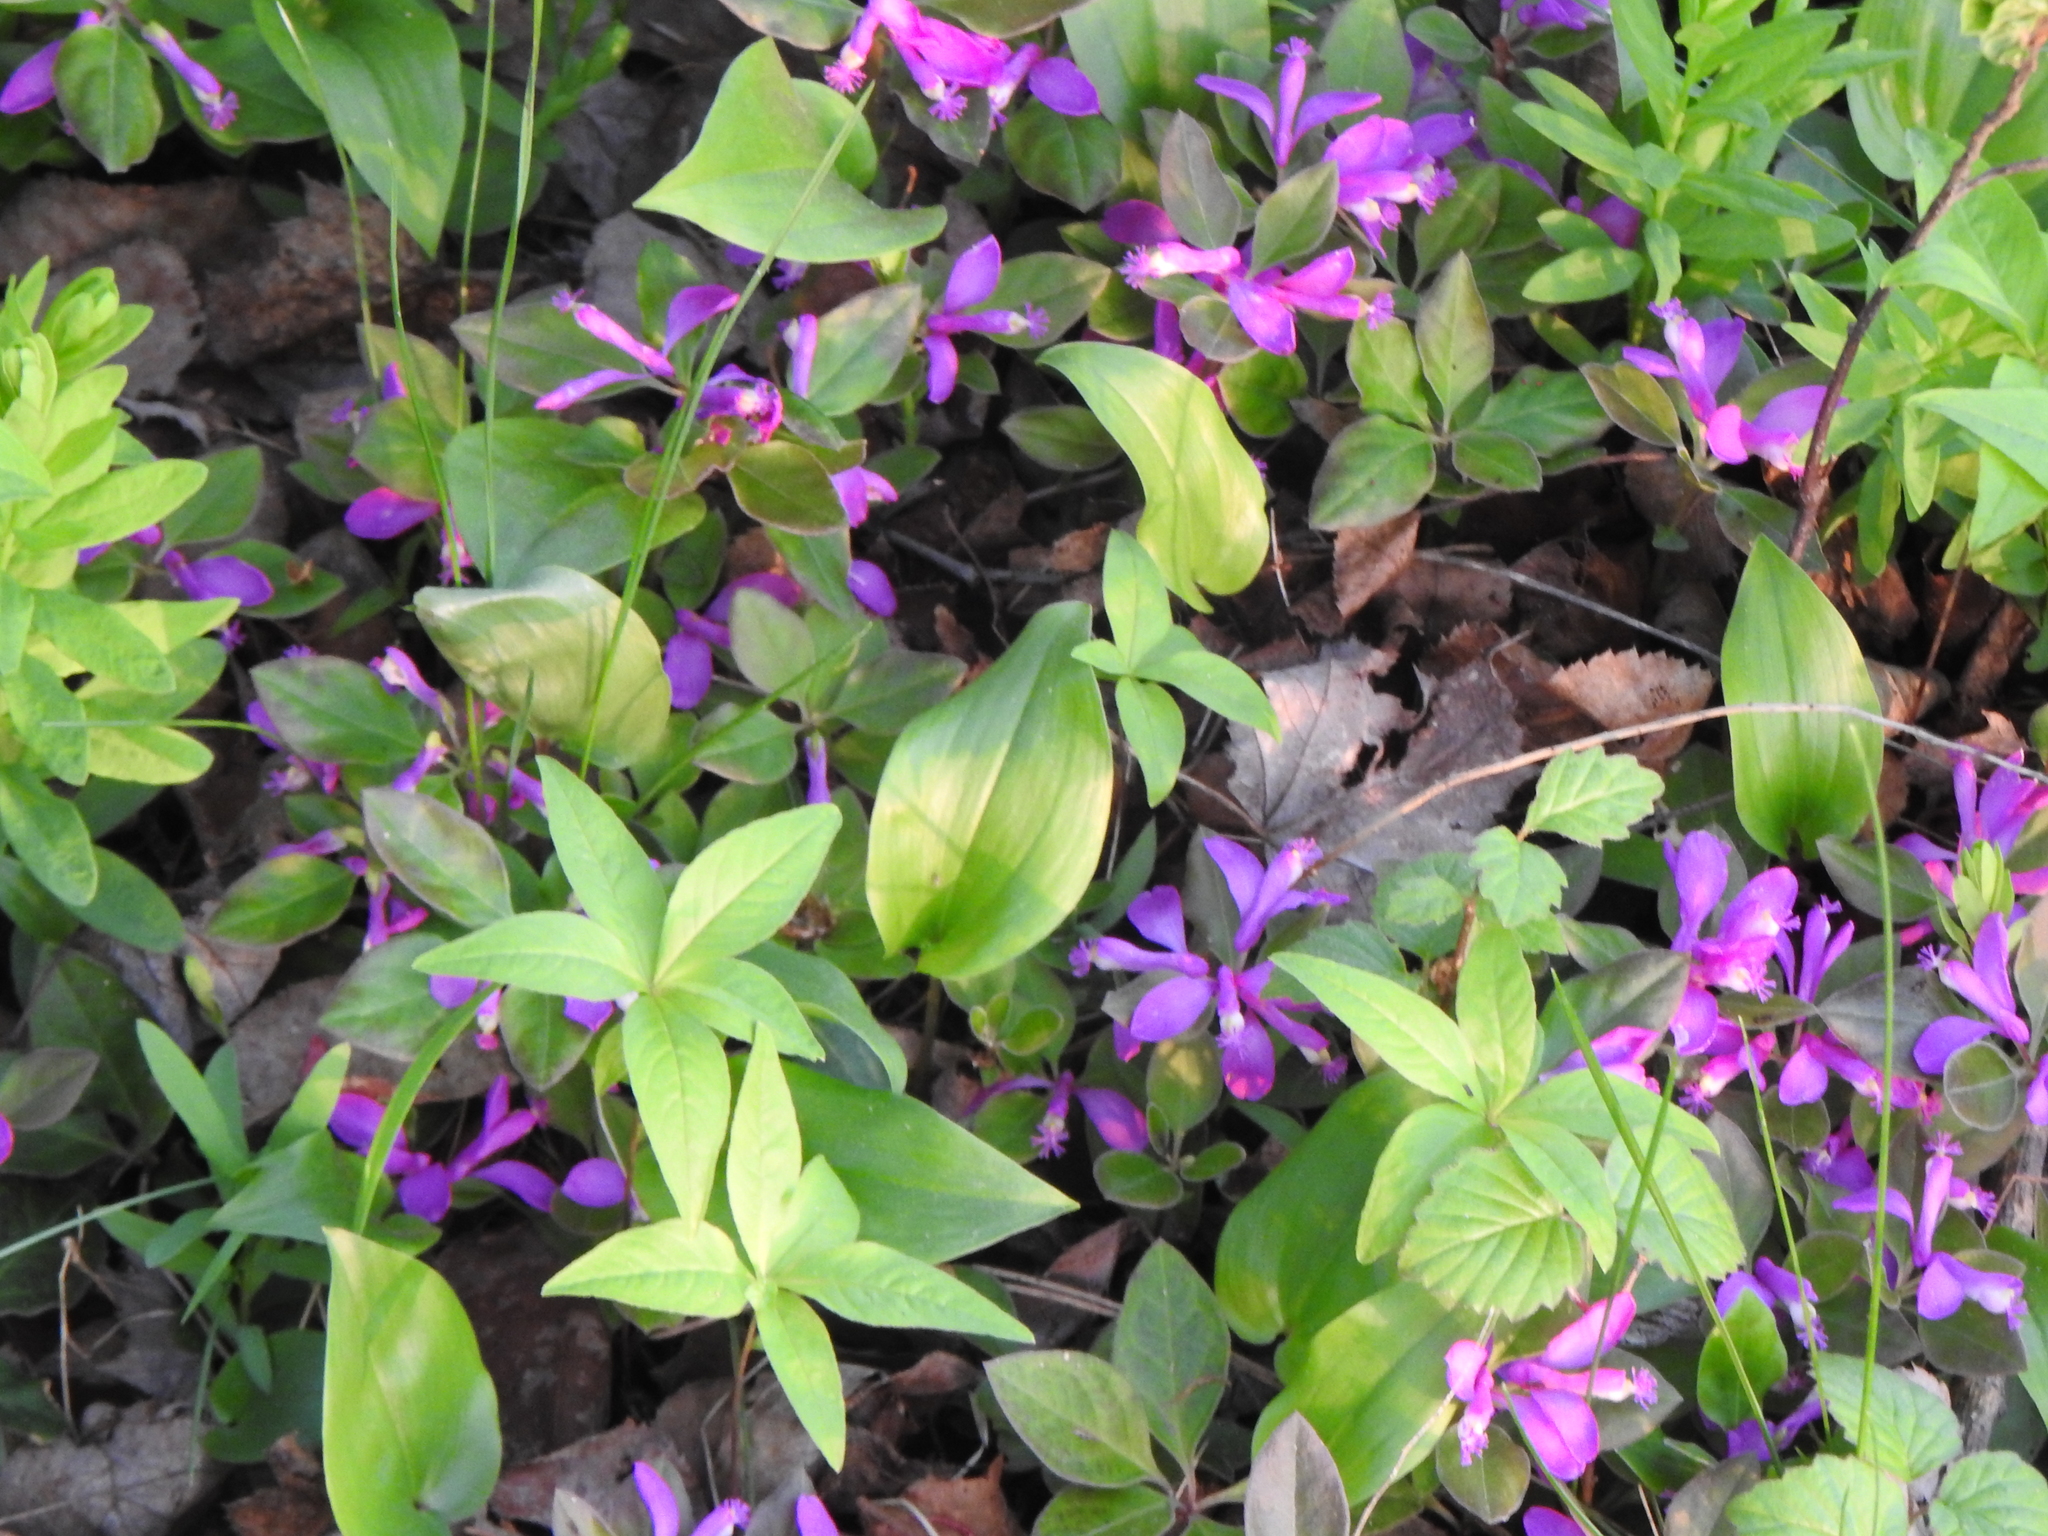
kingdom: Plantae
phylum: Tracheophyta
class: Magnoliopsida
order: Fabales
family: Polygalaceae
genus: Polygaloides
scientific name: Polygaloides paucifolia
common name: Bird-on-the-wing
